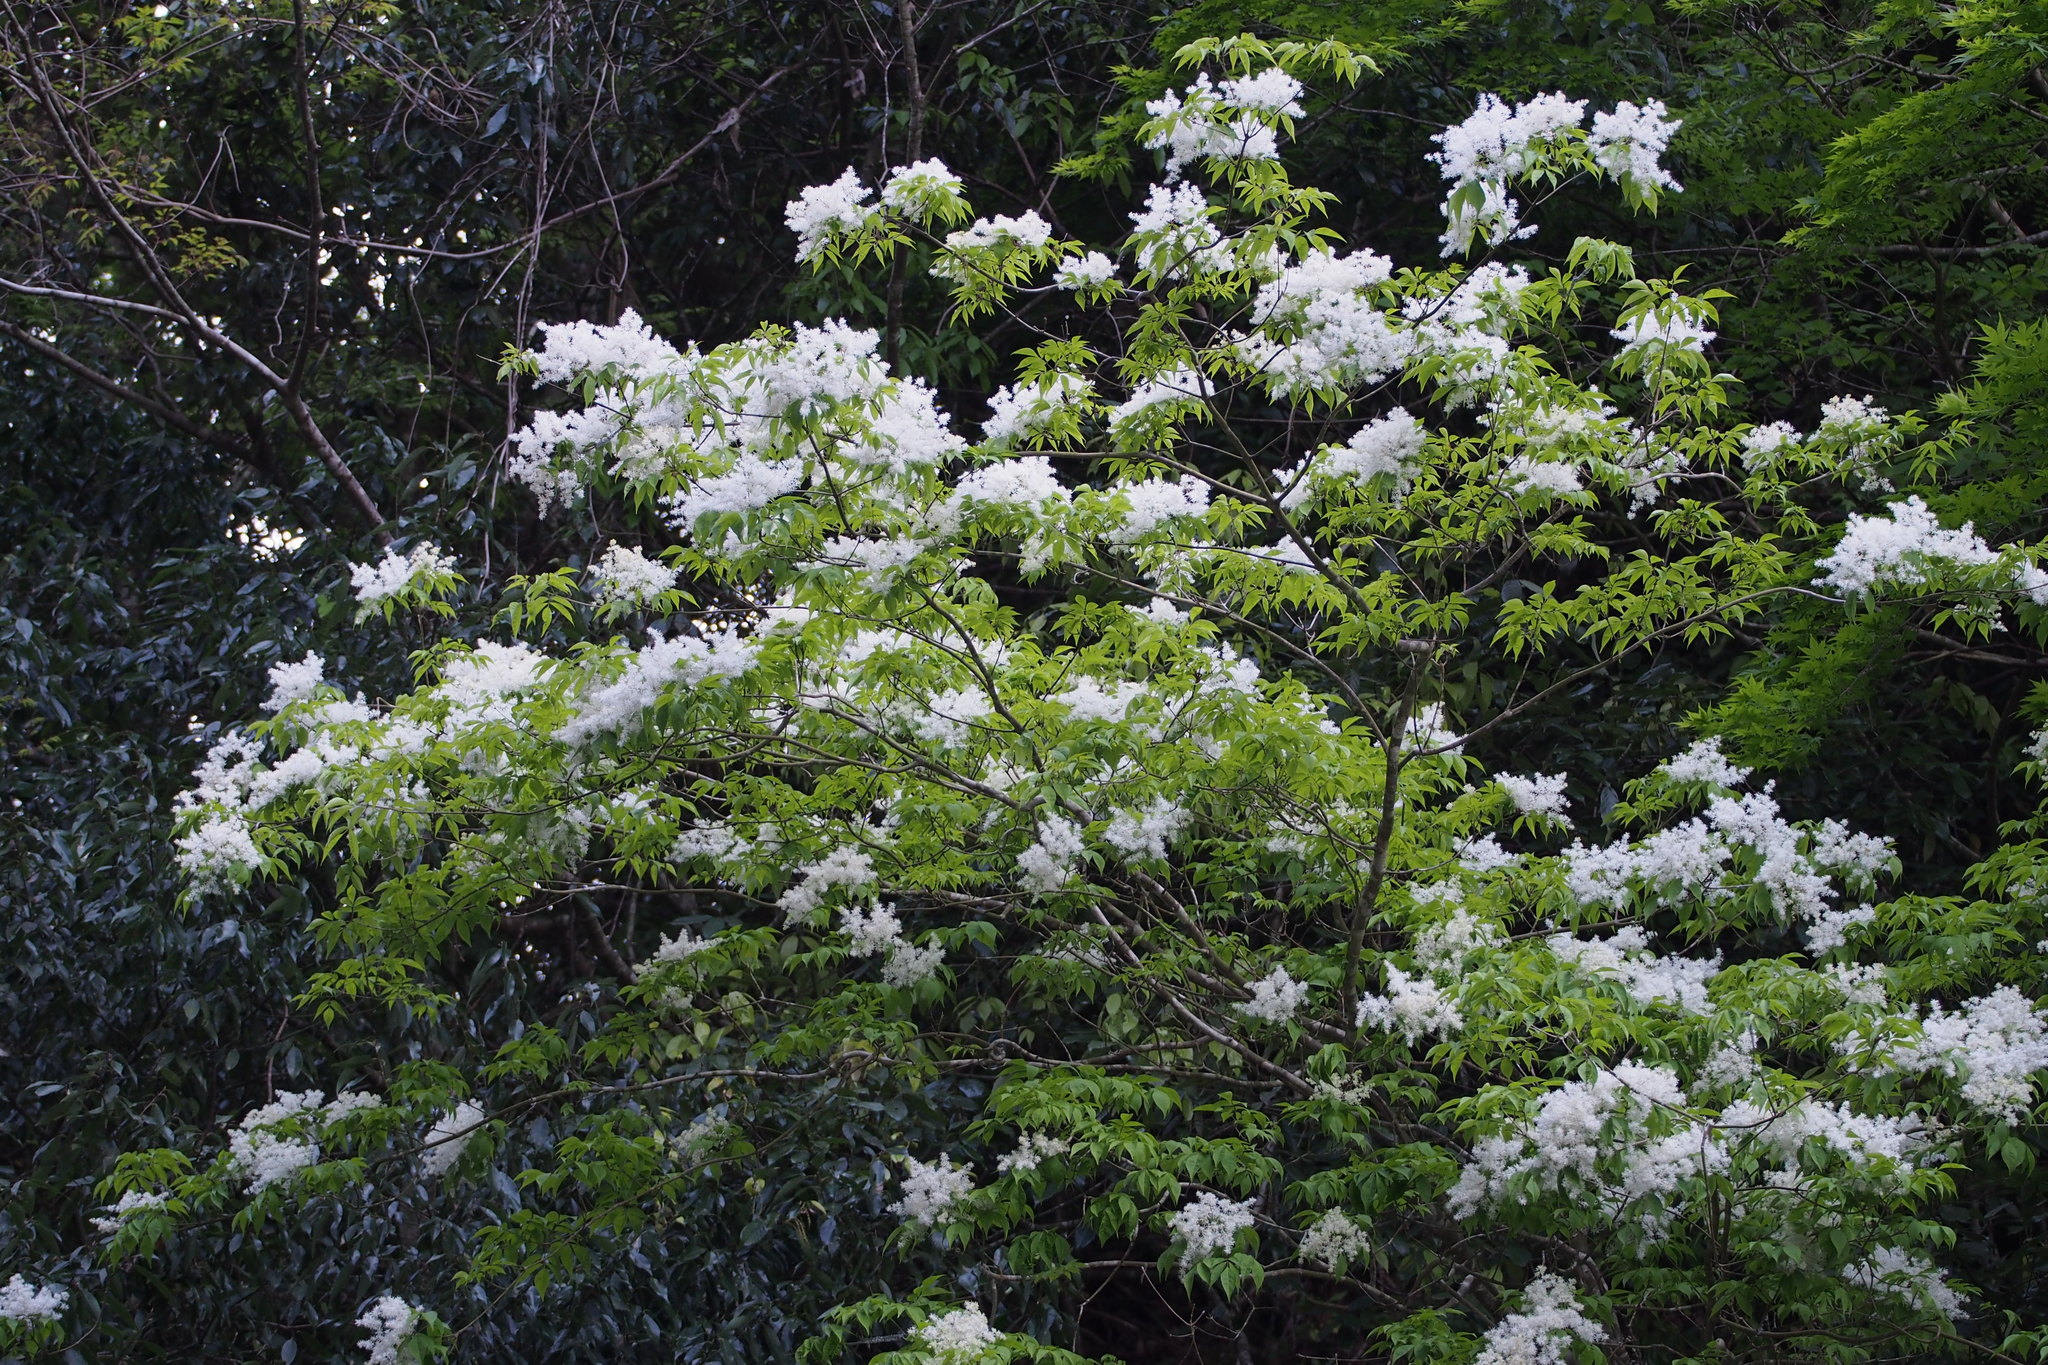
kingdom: Plantae
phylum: Tracheophyta
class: Magnoliopsida
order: Lamiales
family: Oleaceae
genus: Fraxinus
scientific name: Fraxinus lanuginosa
